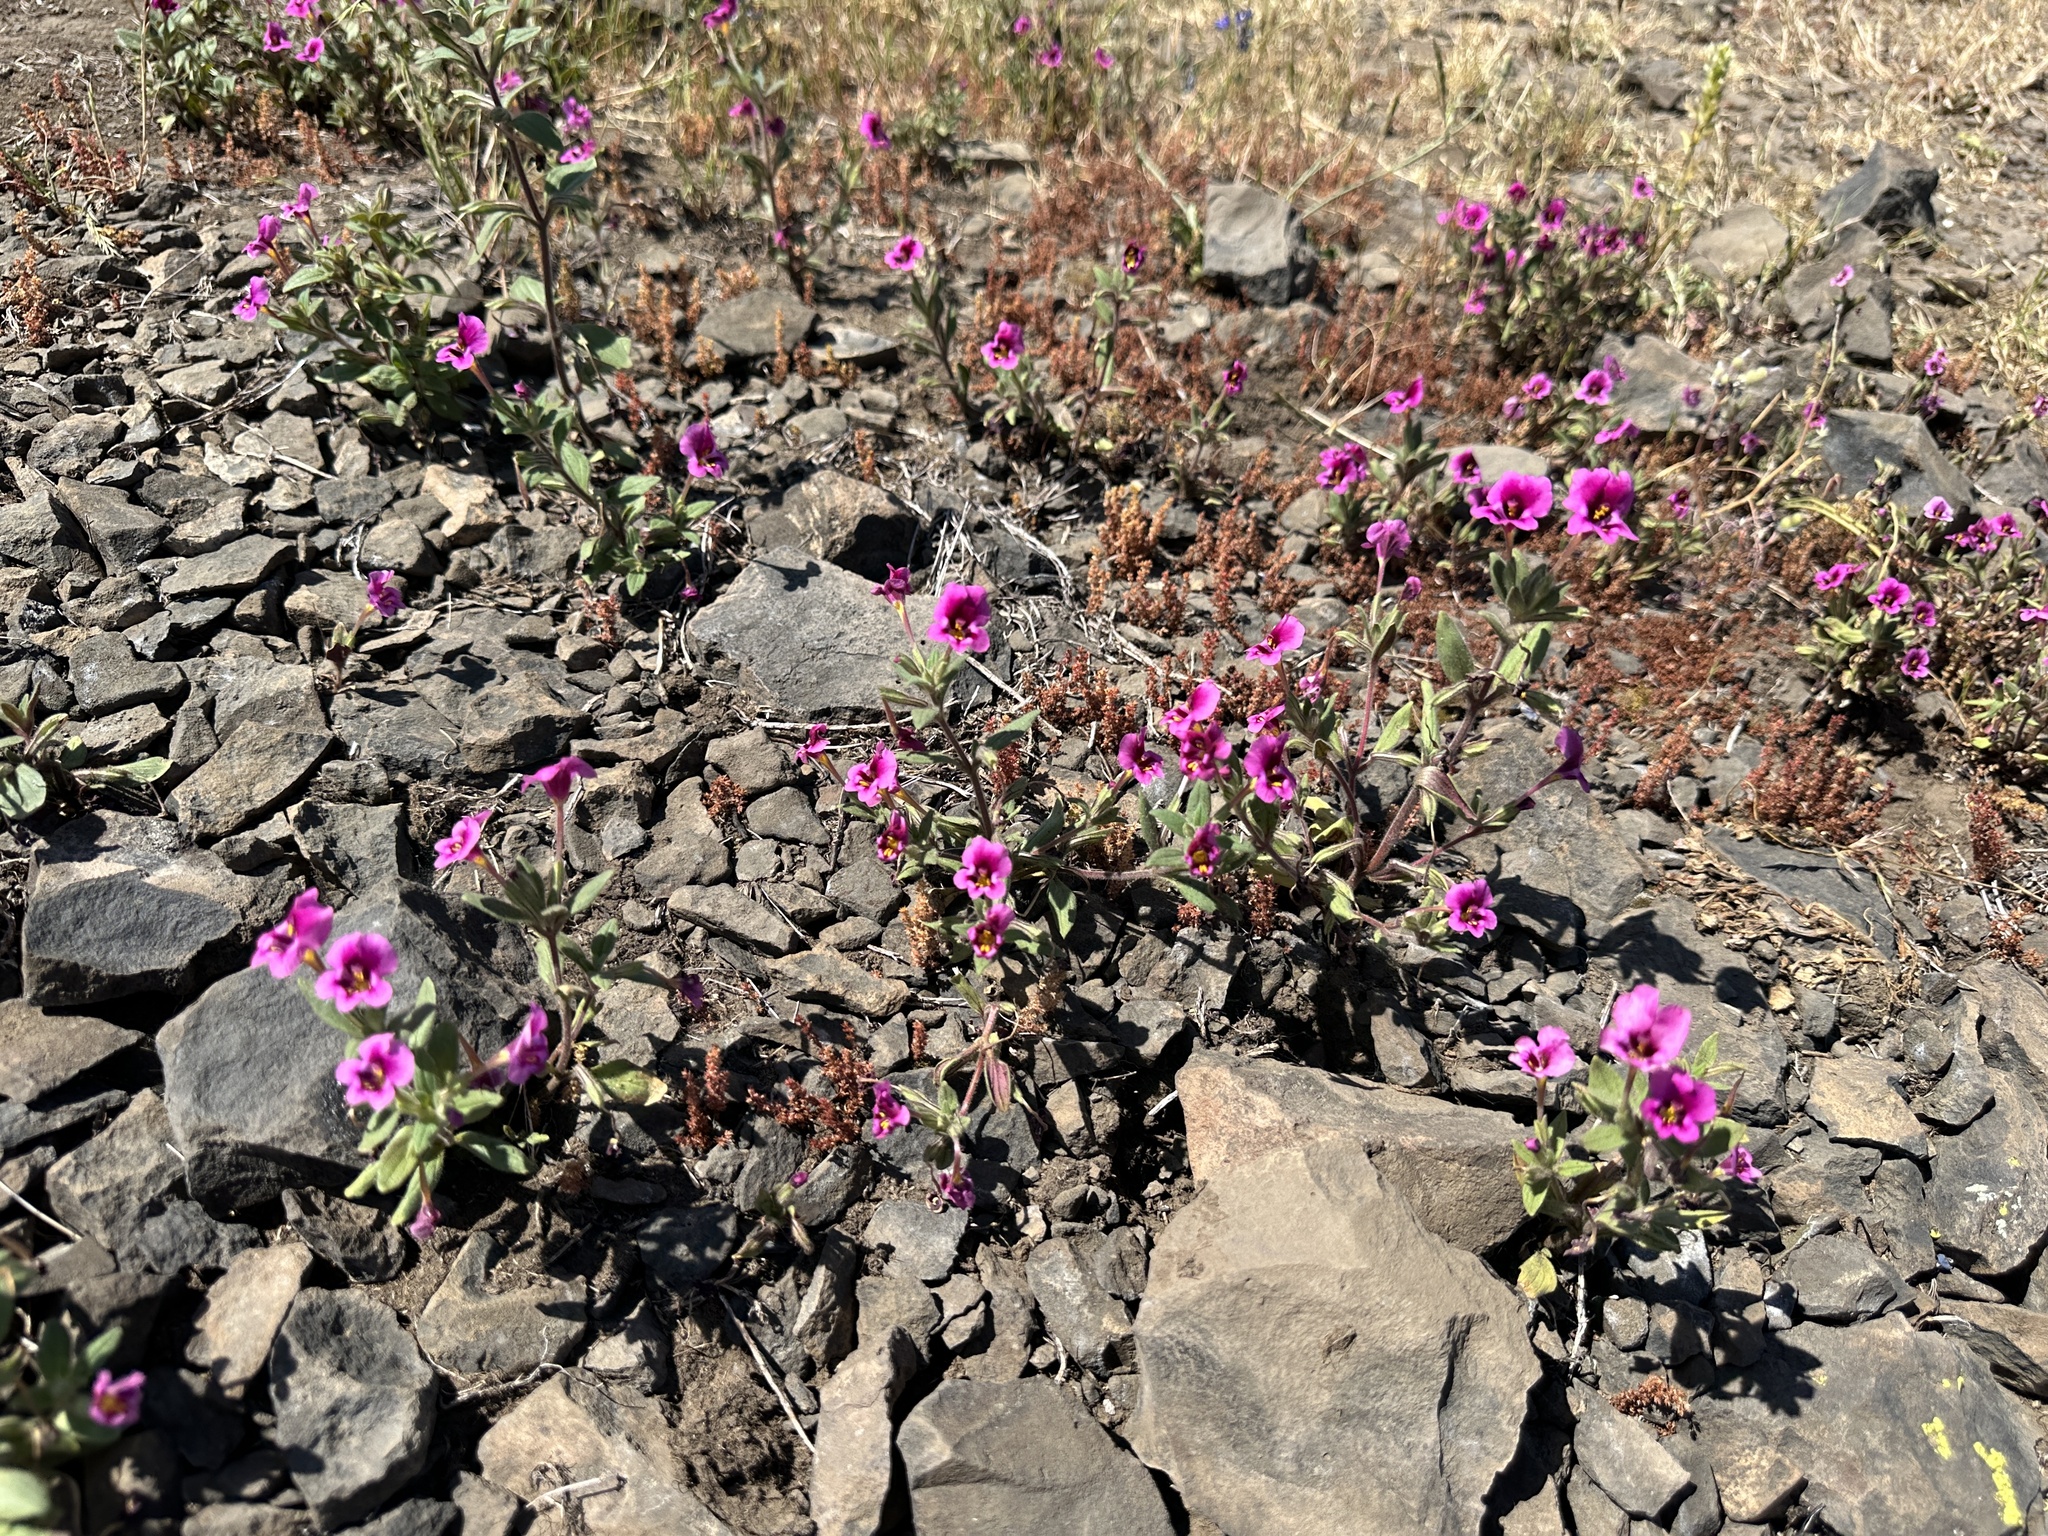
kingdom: Plantae
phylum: Tracheophyta
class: Magnoliopsida
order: Lamiales
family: Phrymaceae
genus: Diplacus
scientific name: Diplacus kelloggii
